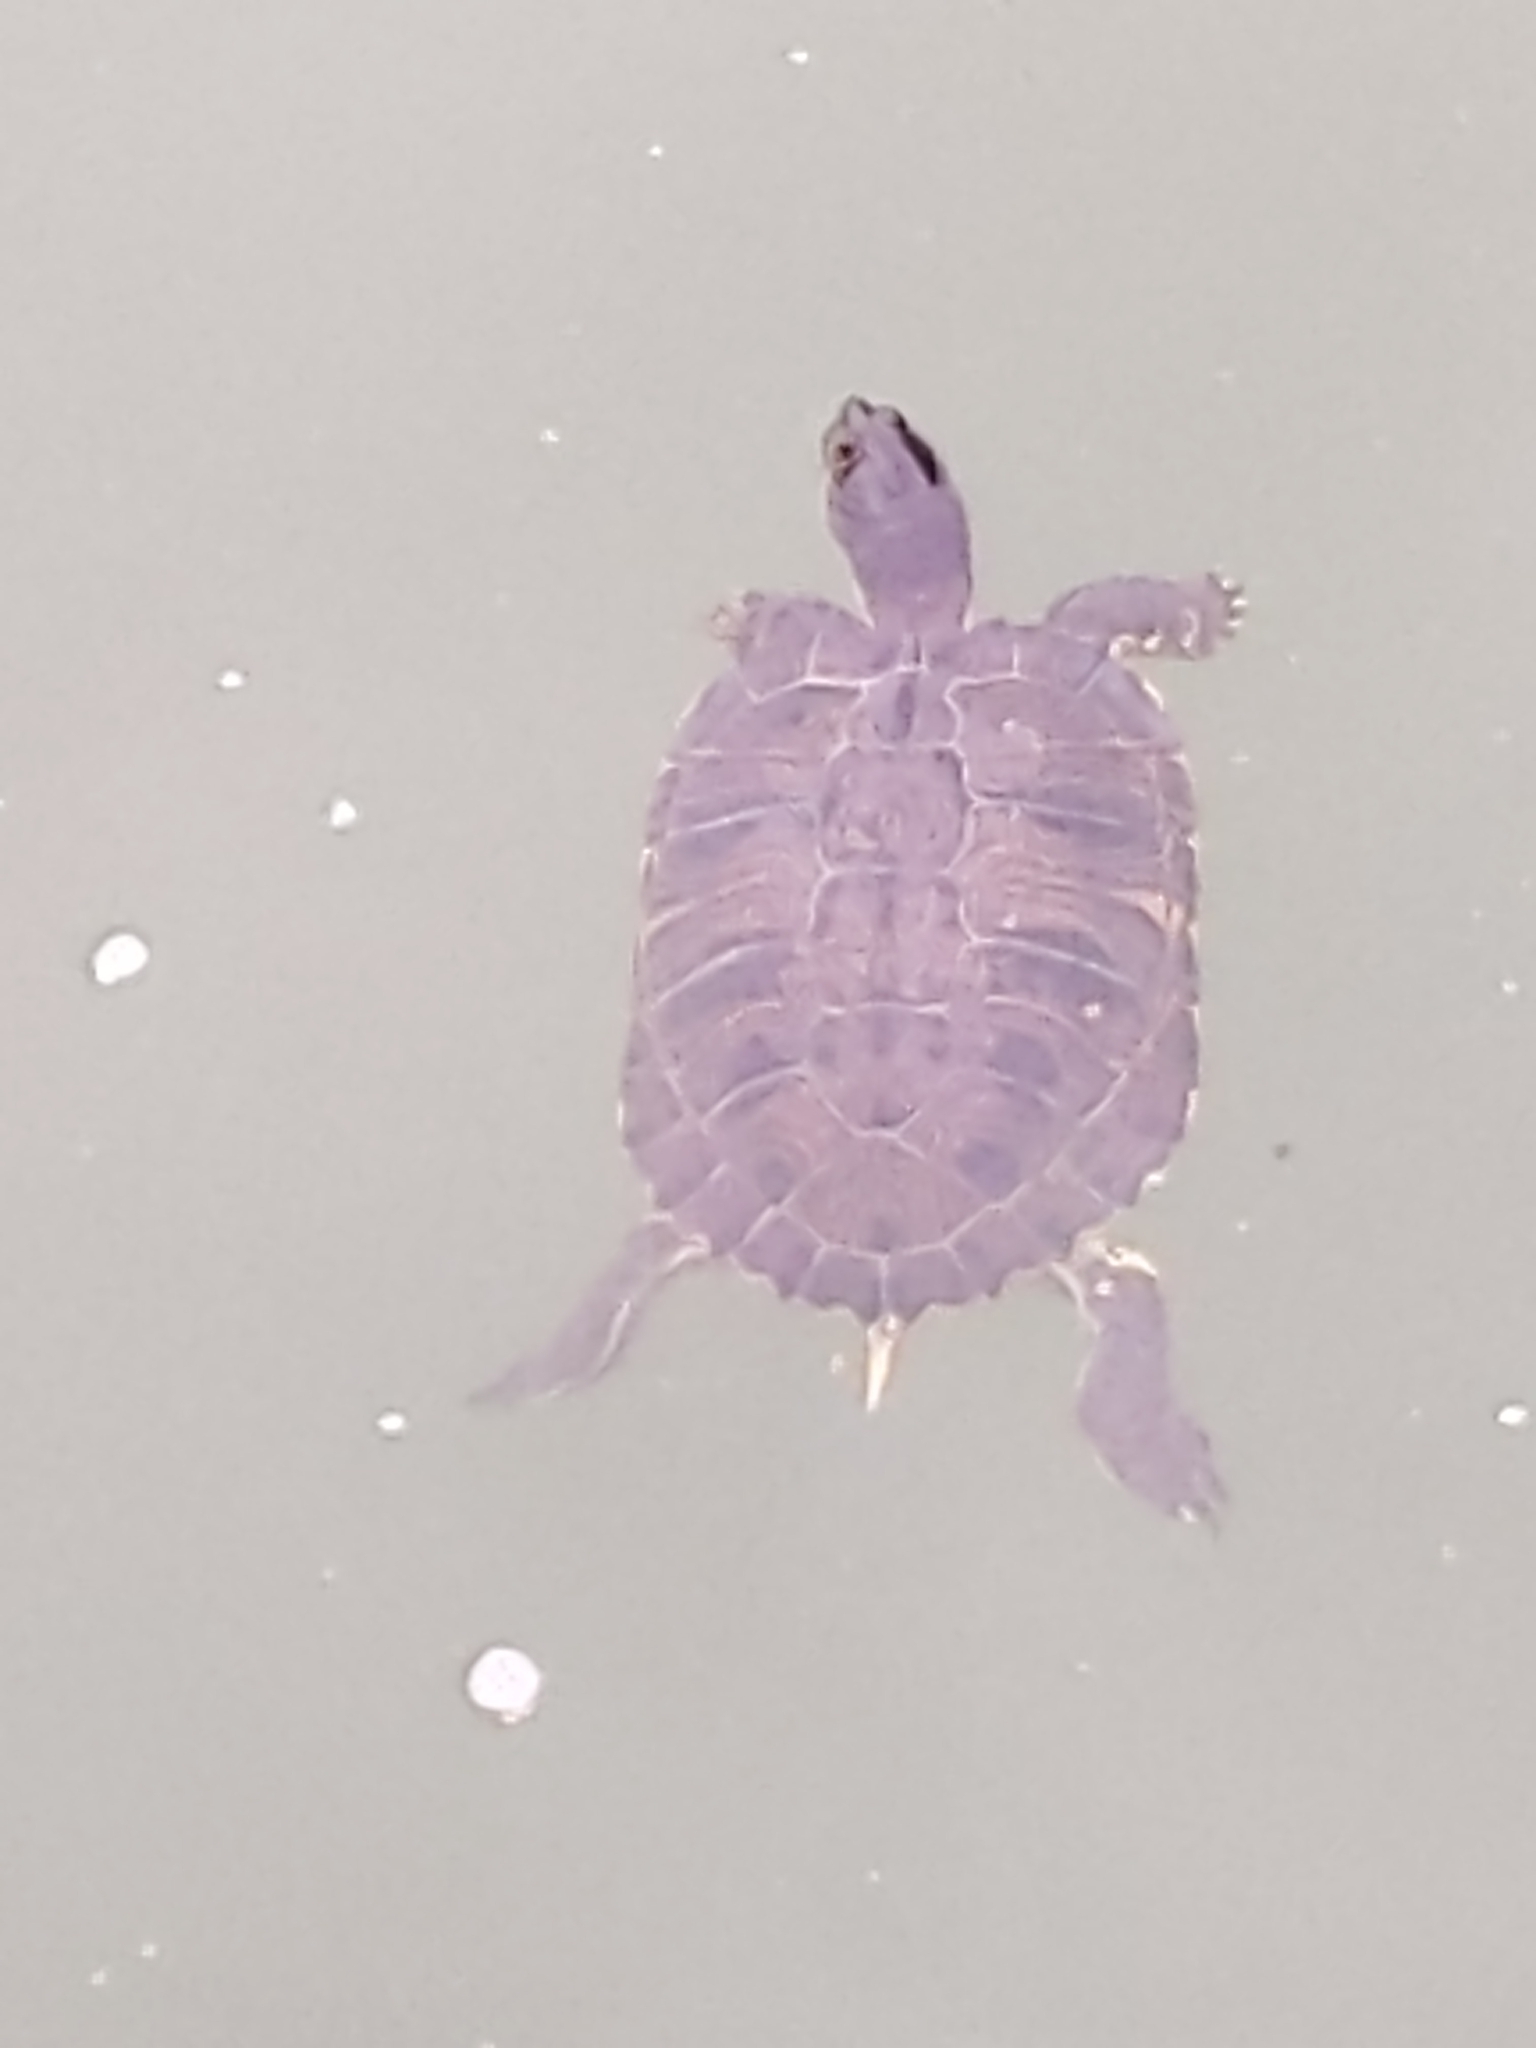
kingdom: Animalia
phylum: Chordata
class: Testudines
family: Emydidae
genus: Trachemys
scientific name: Trachemys scripta
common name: Slider
